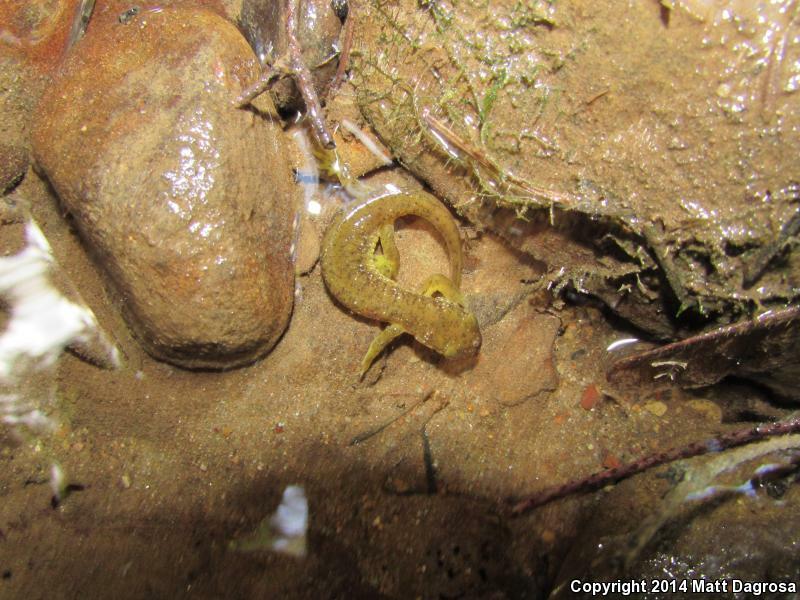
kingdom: Animalia
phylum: Chordata
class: Amphibia
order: Caudata
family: Rhyacotritonidae
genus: Rhyacotriton
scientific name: Rhyacotriton variegatus
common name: Southern torrent salamander
